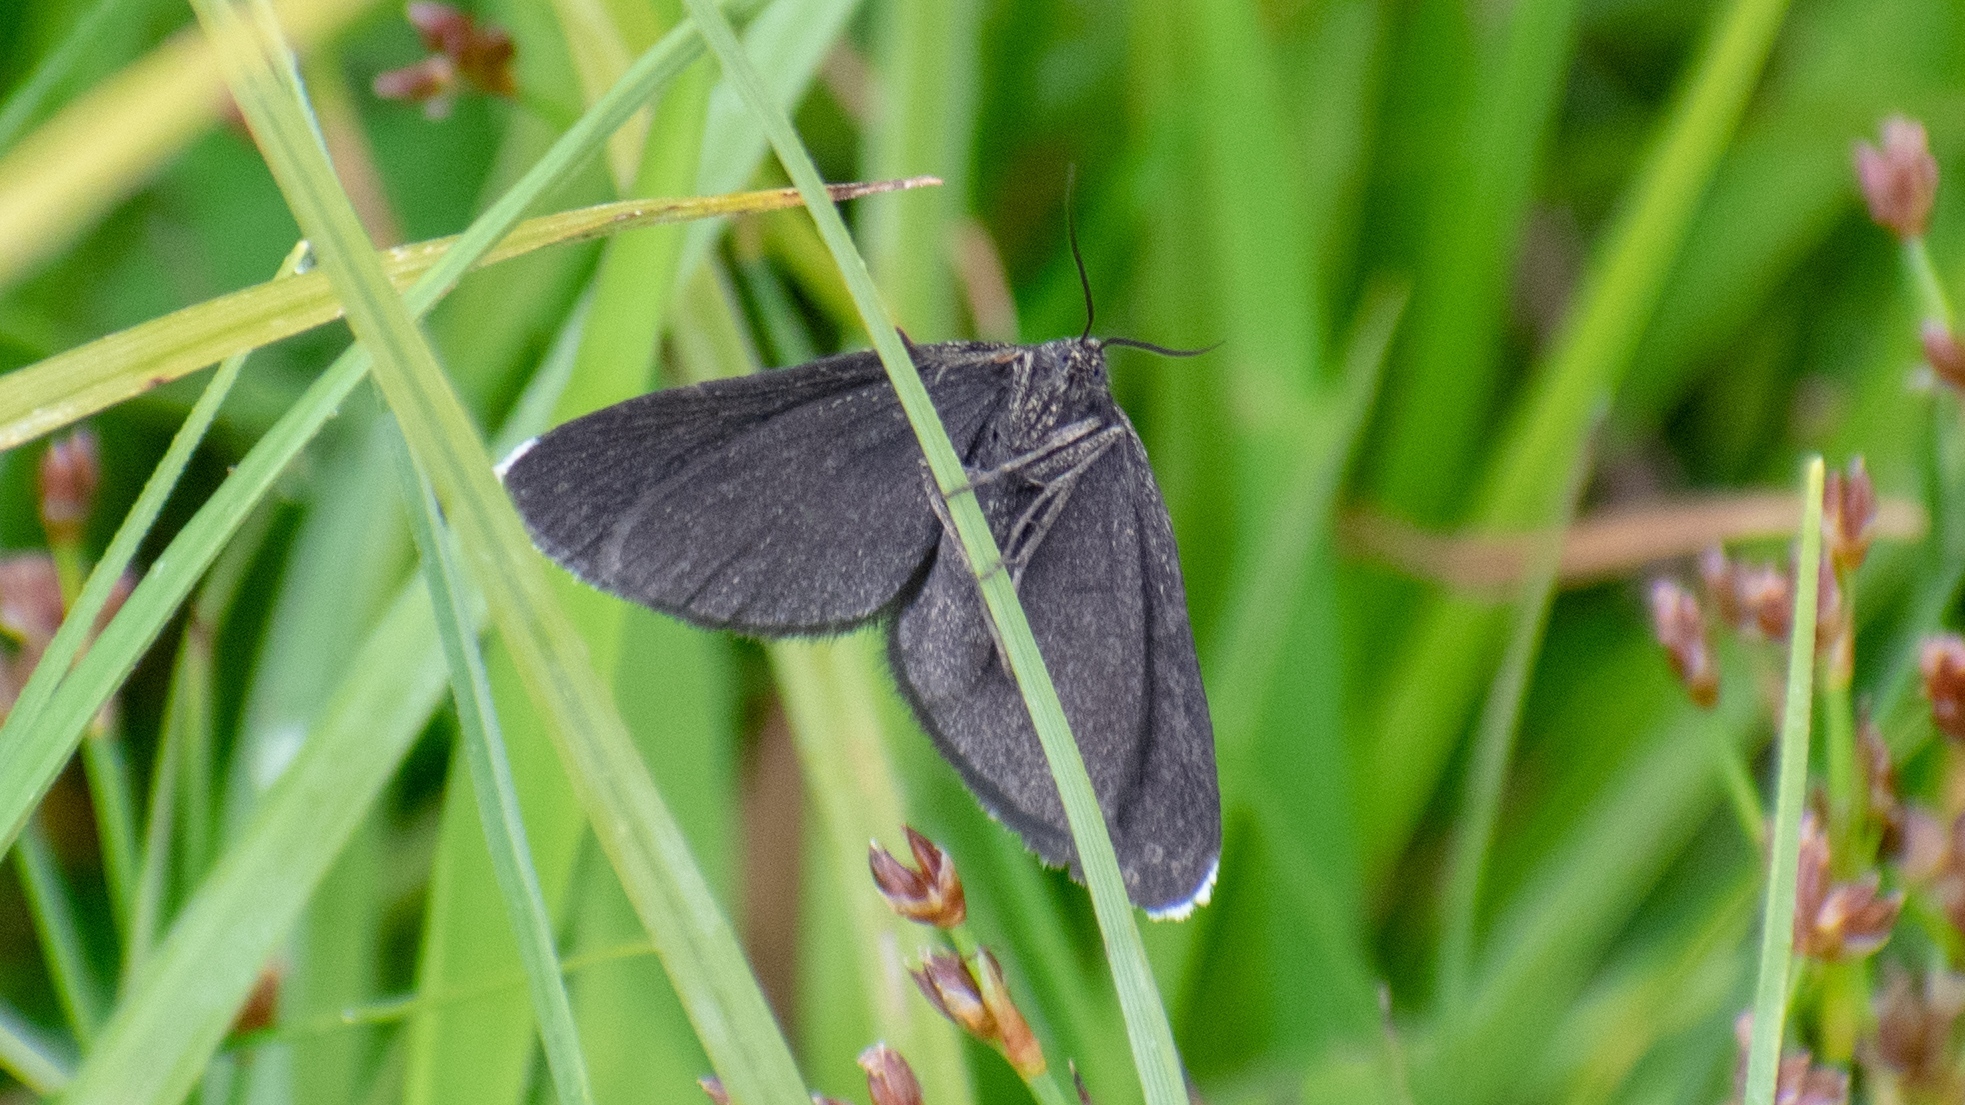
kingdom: Animalia
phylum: Arthropoda
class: Insecta
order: Lepidoptera
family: Geometridae
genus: Odezia
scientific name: Odezia atrata
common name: Chimney sweeper
